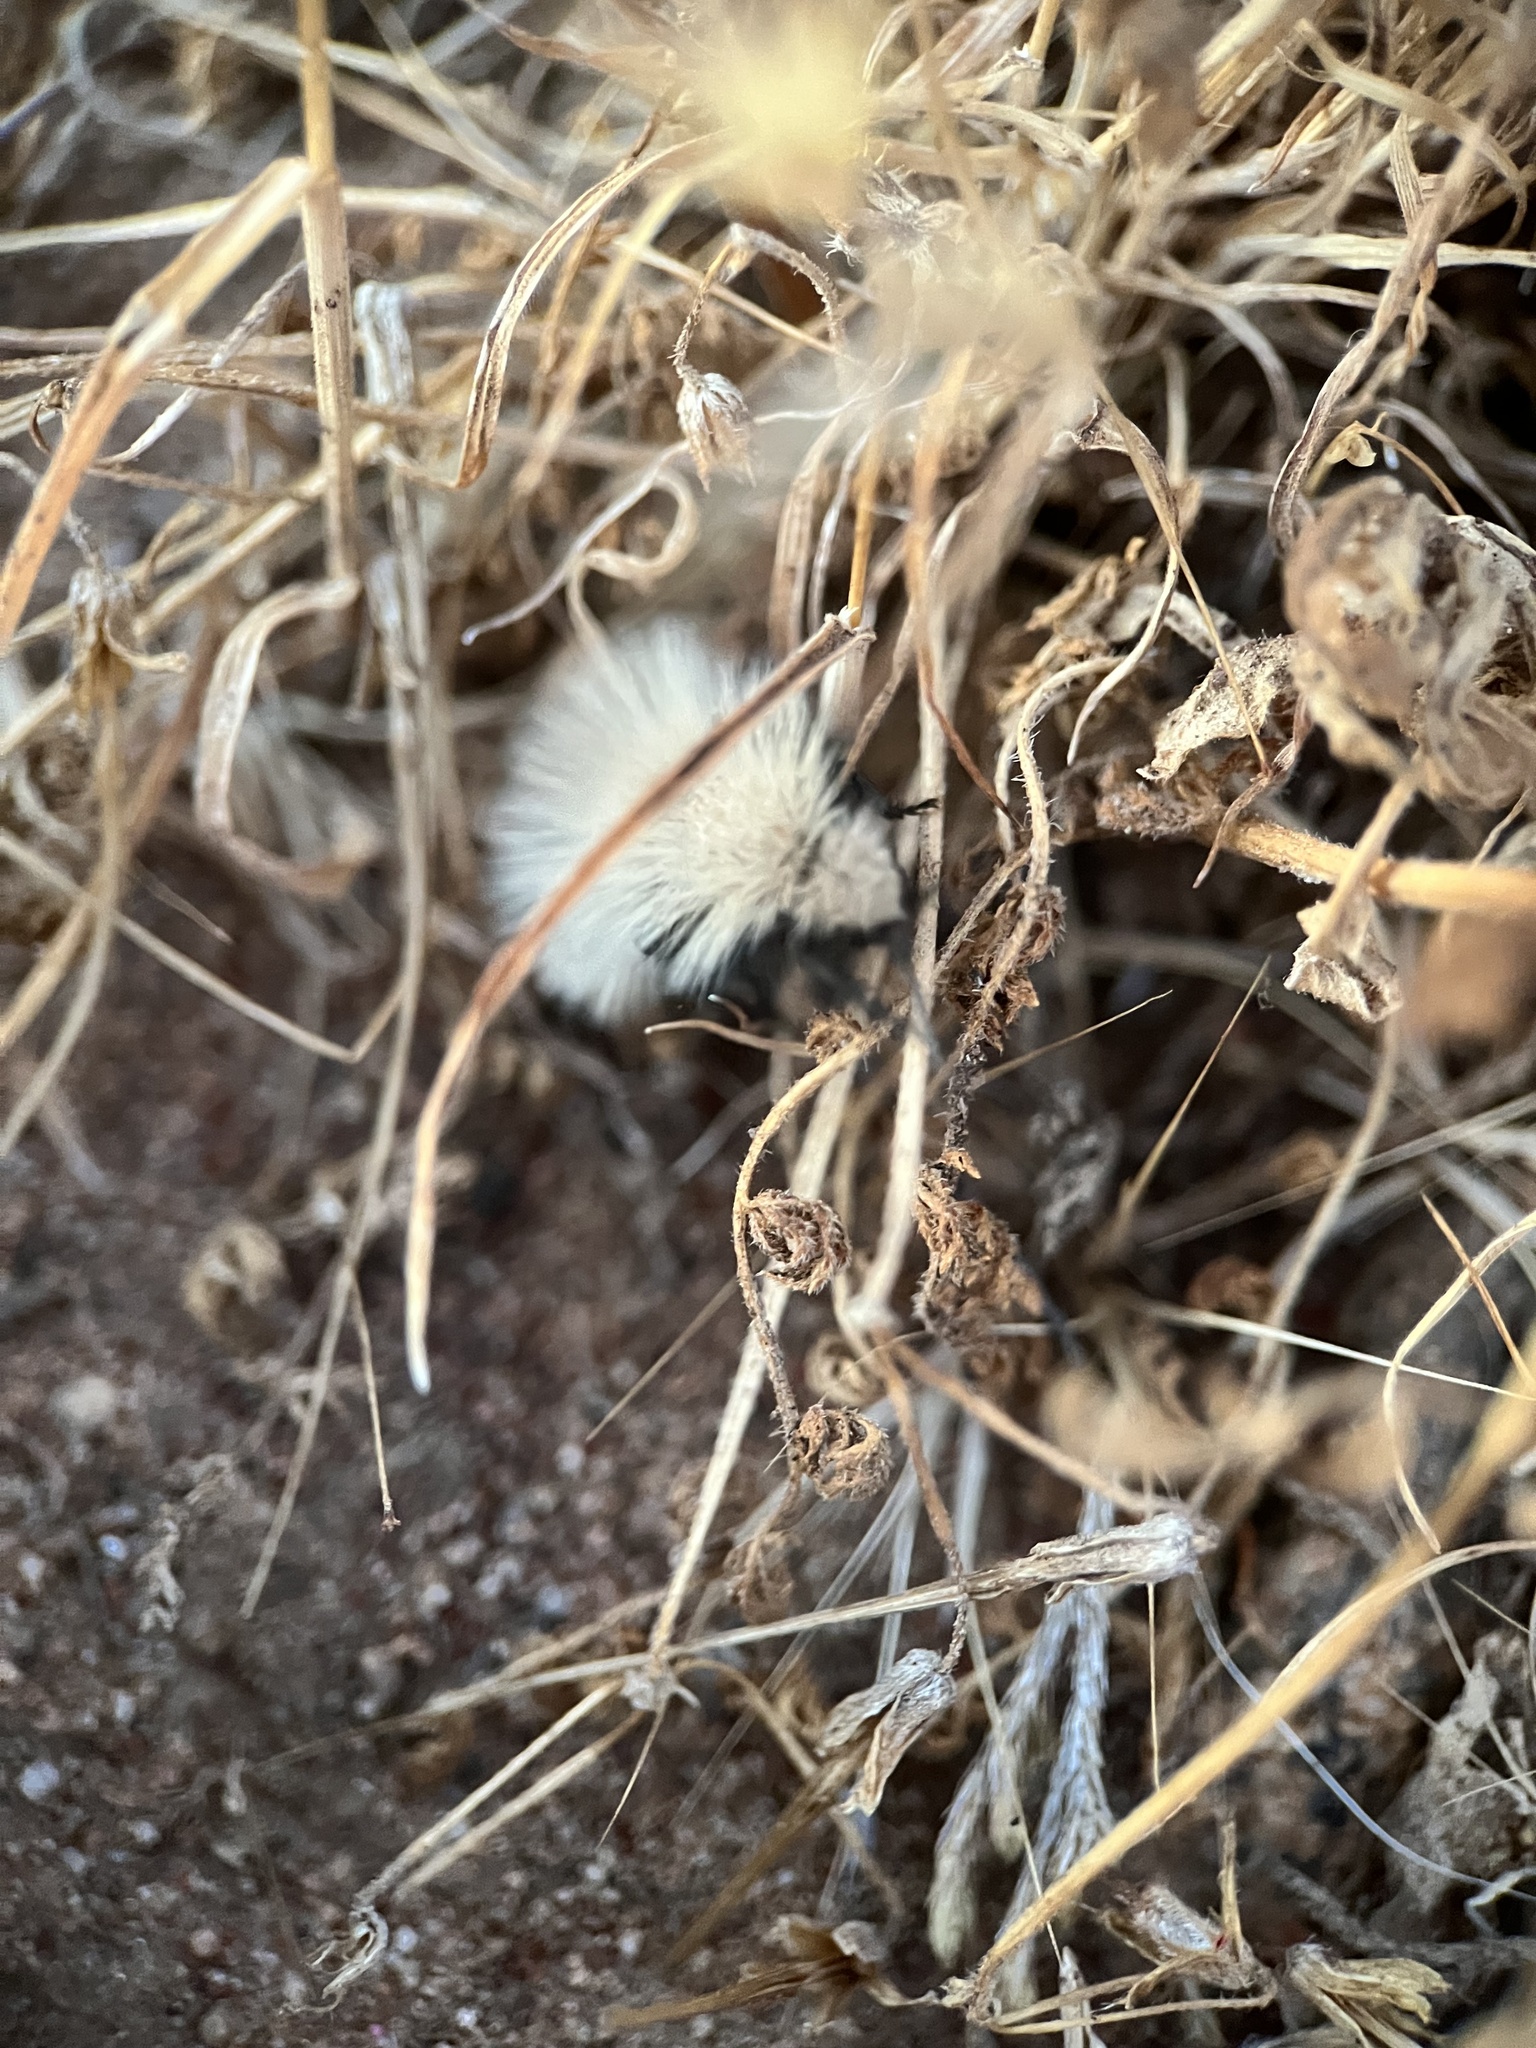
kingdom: Animalia
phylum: Arthropoda
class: Insecta
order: Hymenoptera
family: Mutillidae
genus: Dasymutilla
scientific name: Dasymutilla
